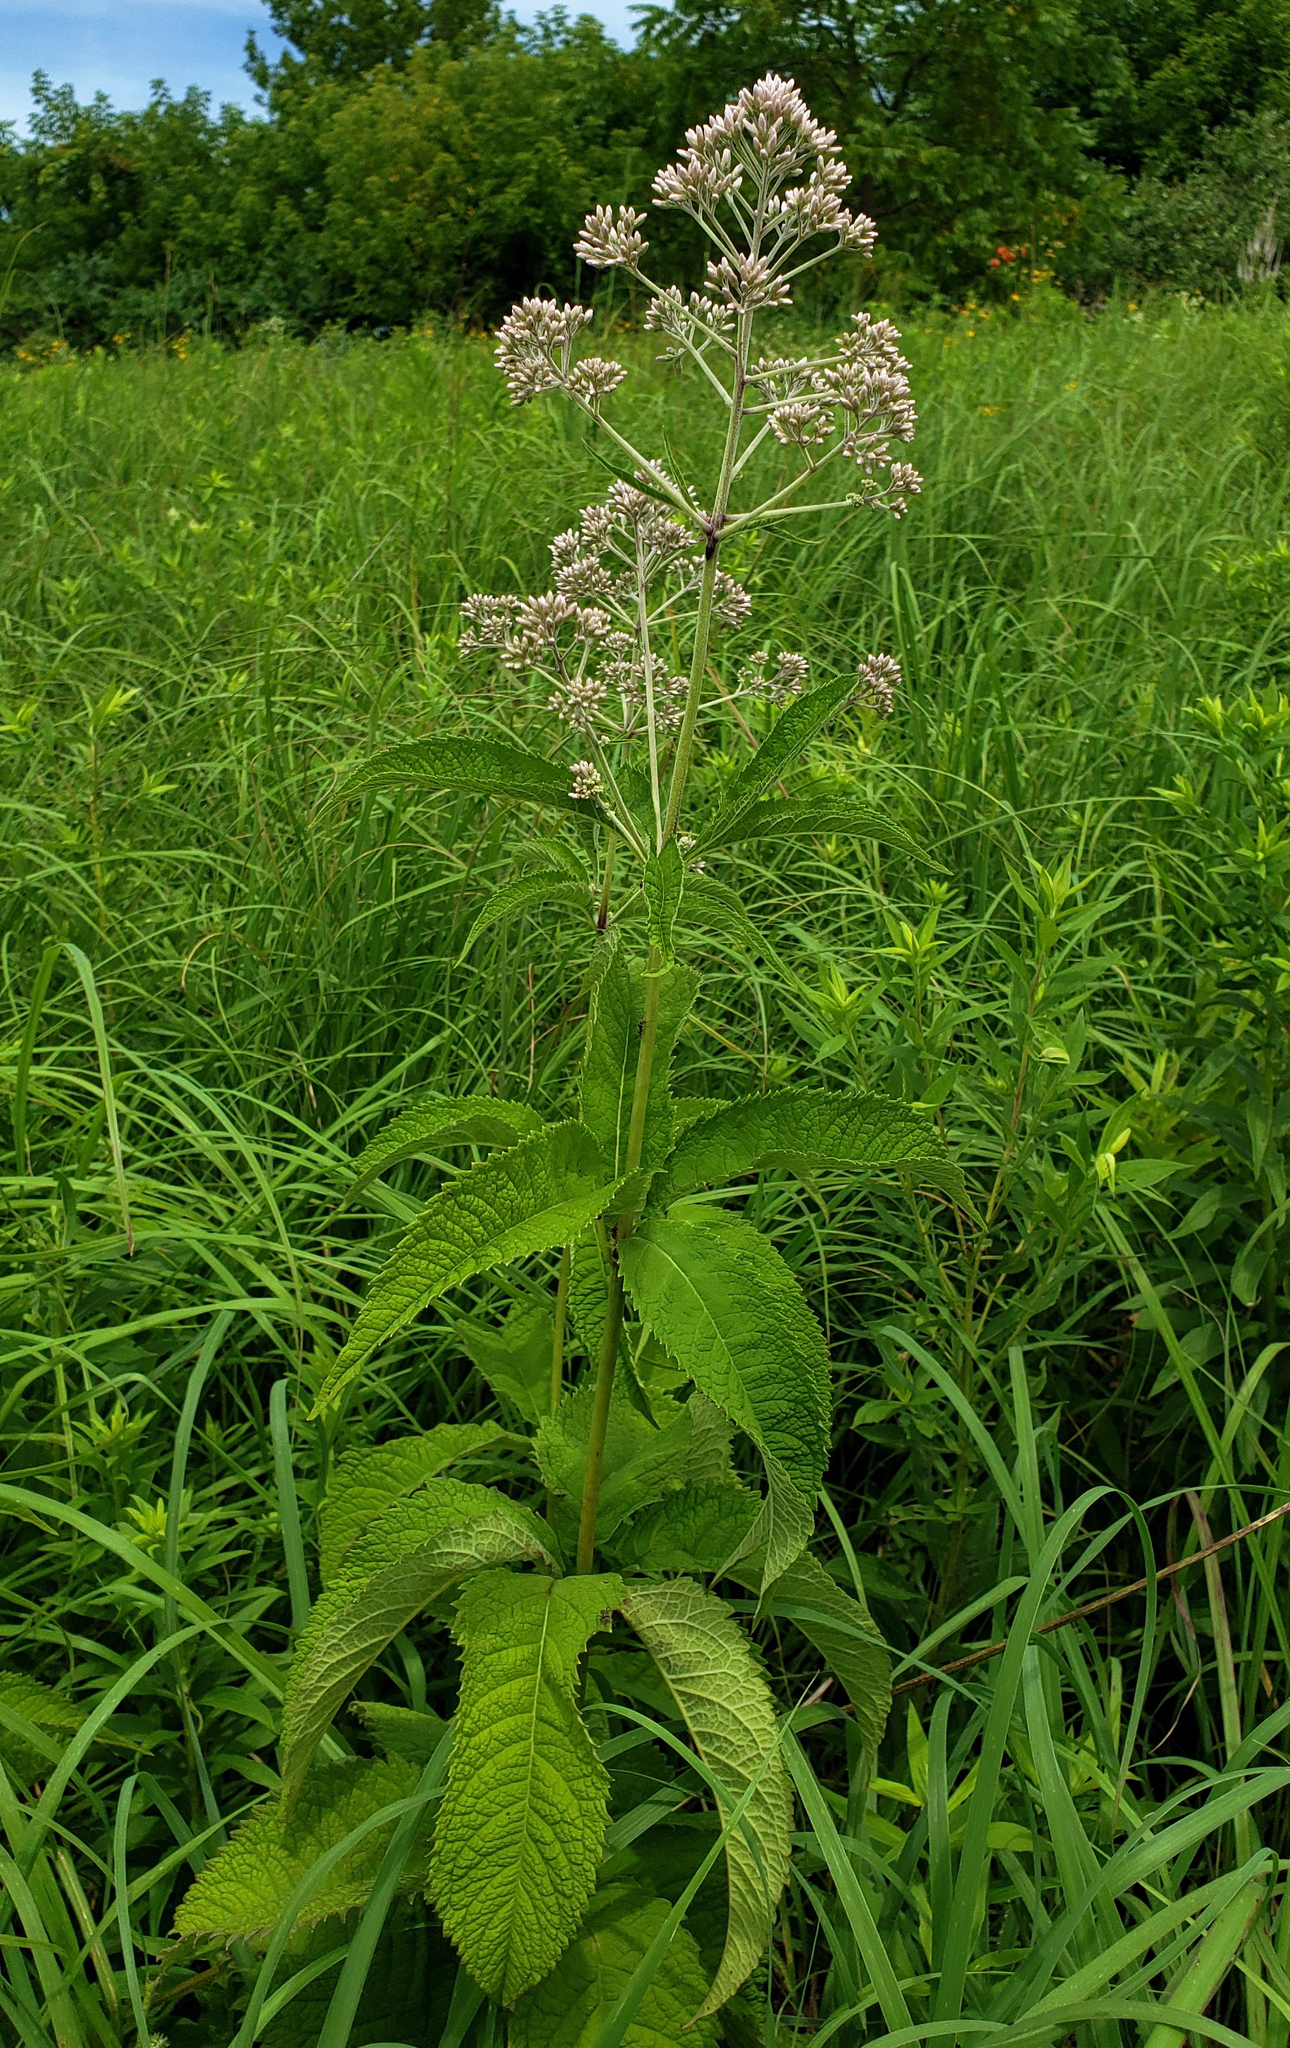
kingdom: Plantae
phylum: Tracheophyta
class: Magnoliopsida
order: Asterales
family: Asteraceae
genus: Eutrochium
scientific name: Eutrochium purpureum
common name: Gravelroot
